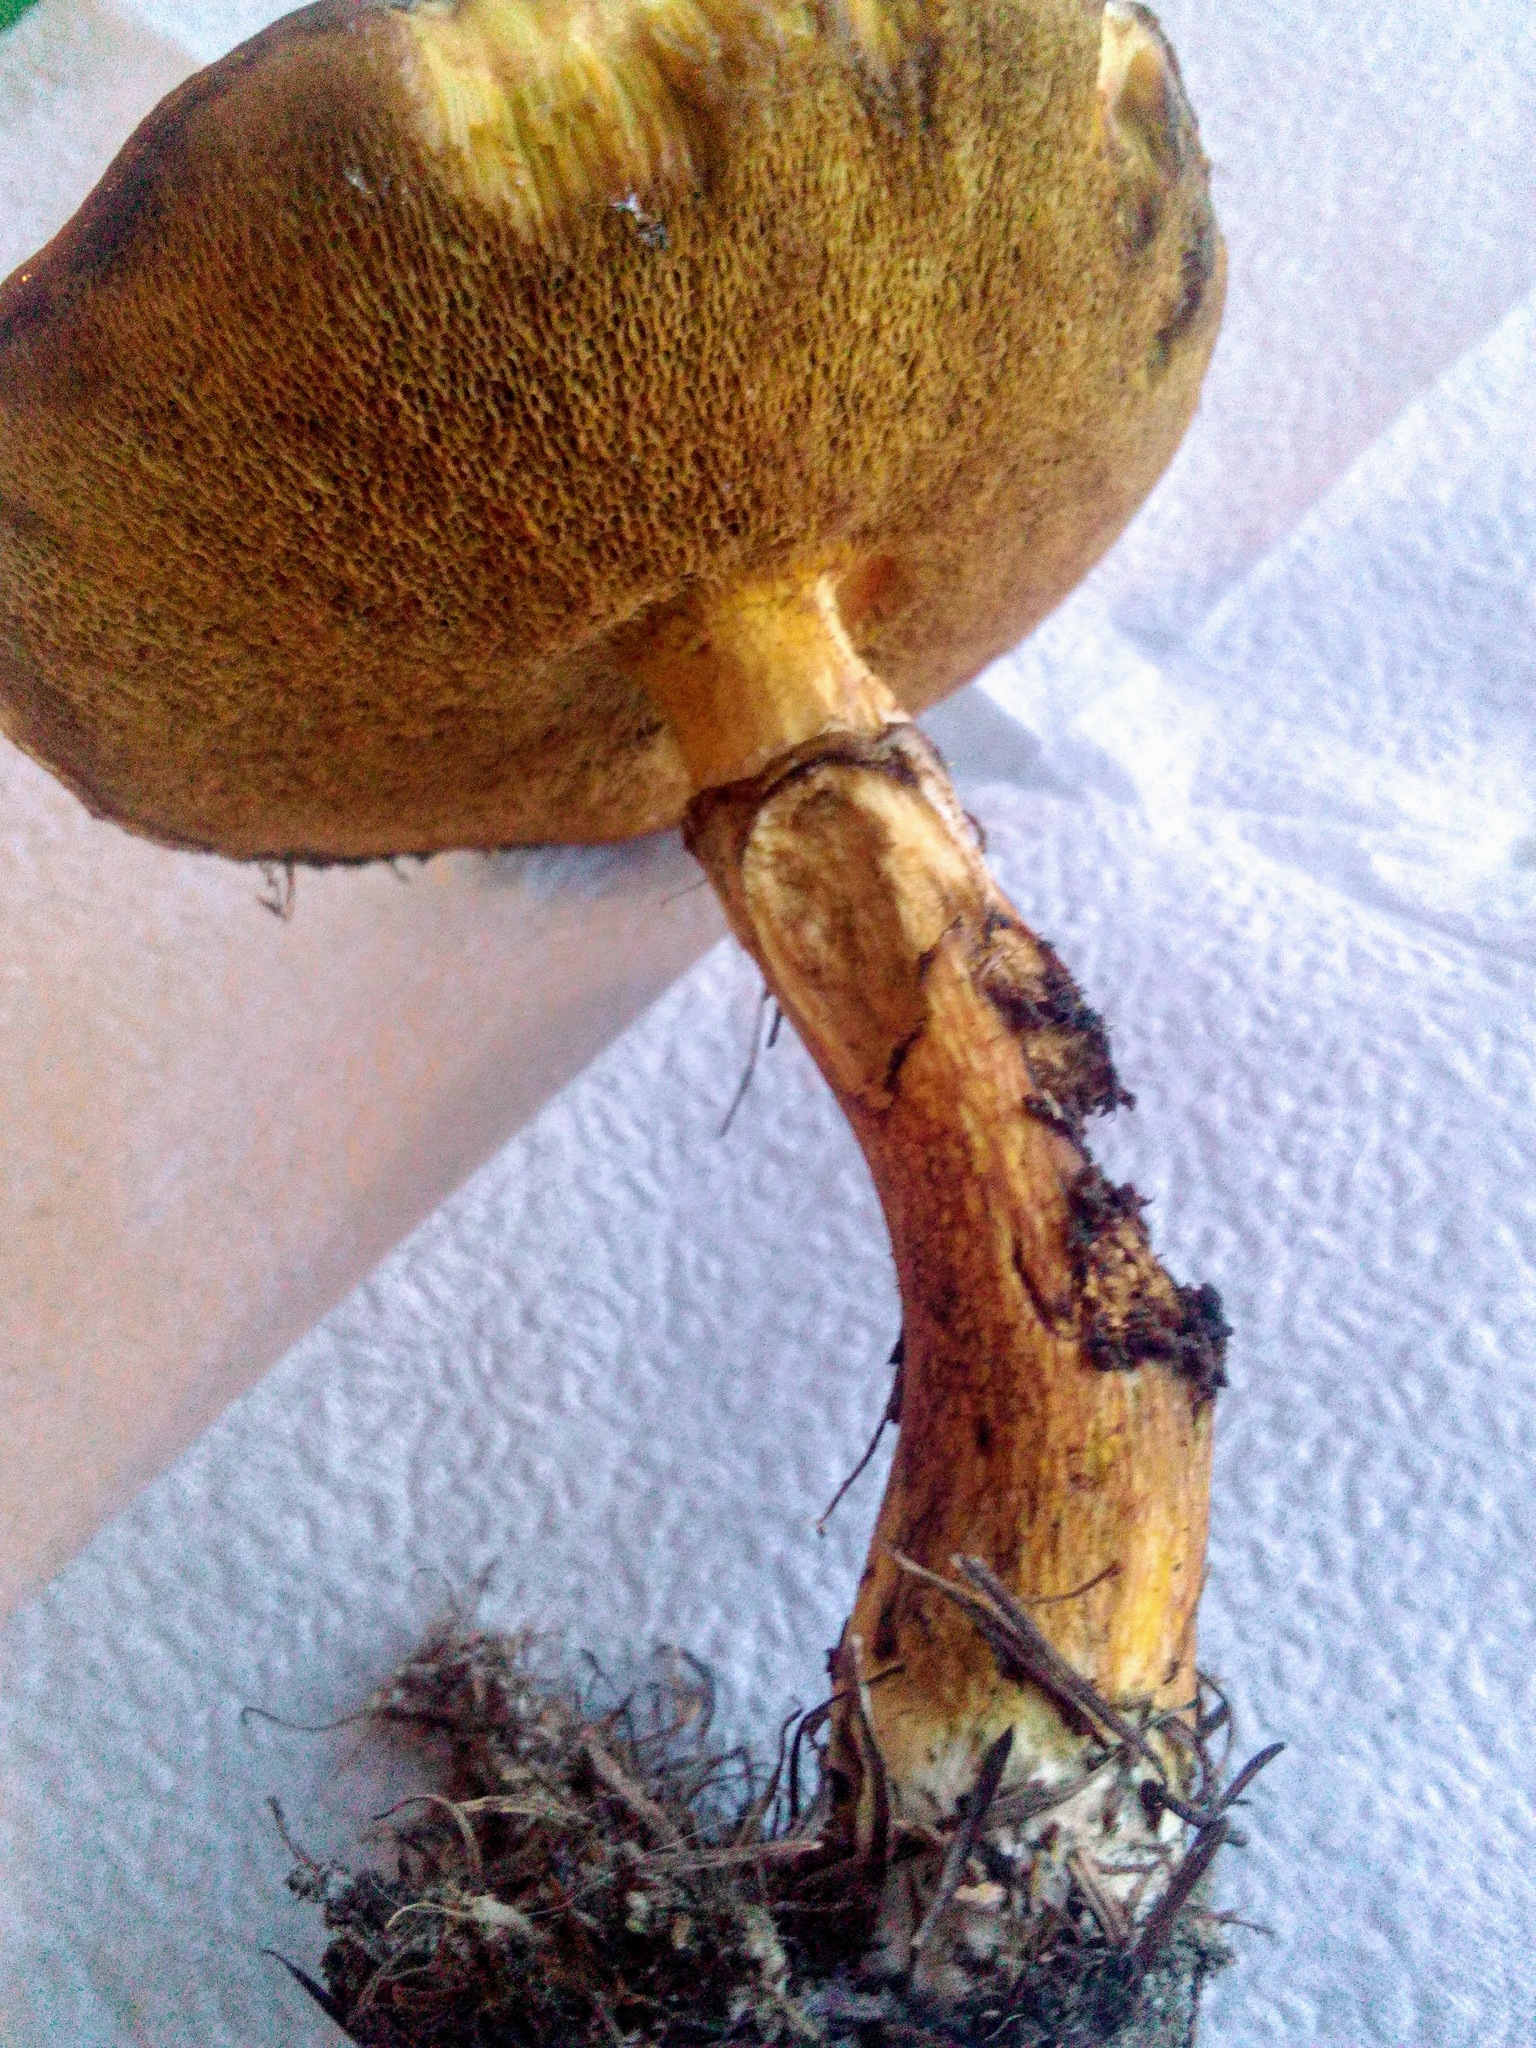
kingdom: Fungi
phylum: Basidiomycota
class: Agaricomycetes
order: Boletales
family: Suillaceae
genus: Suillus
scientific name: Suillus grevillei
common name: Larch bolete
